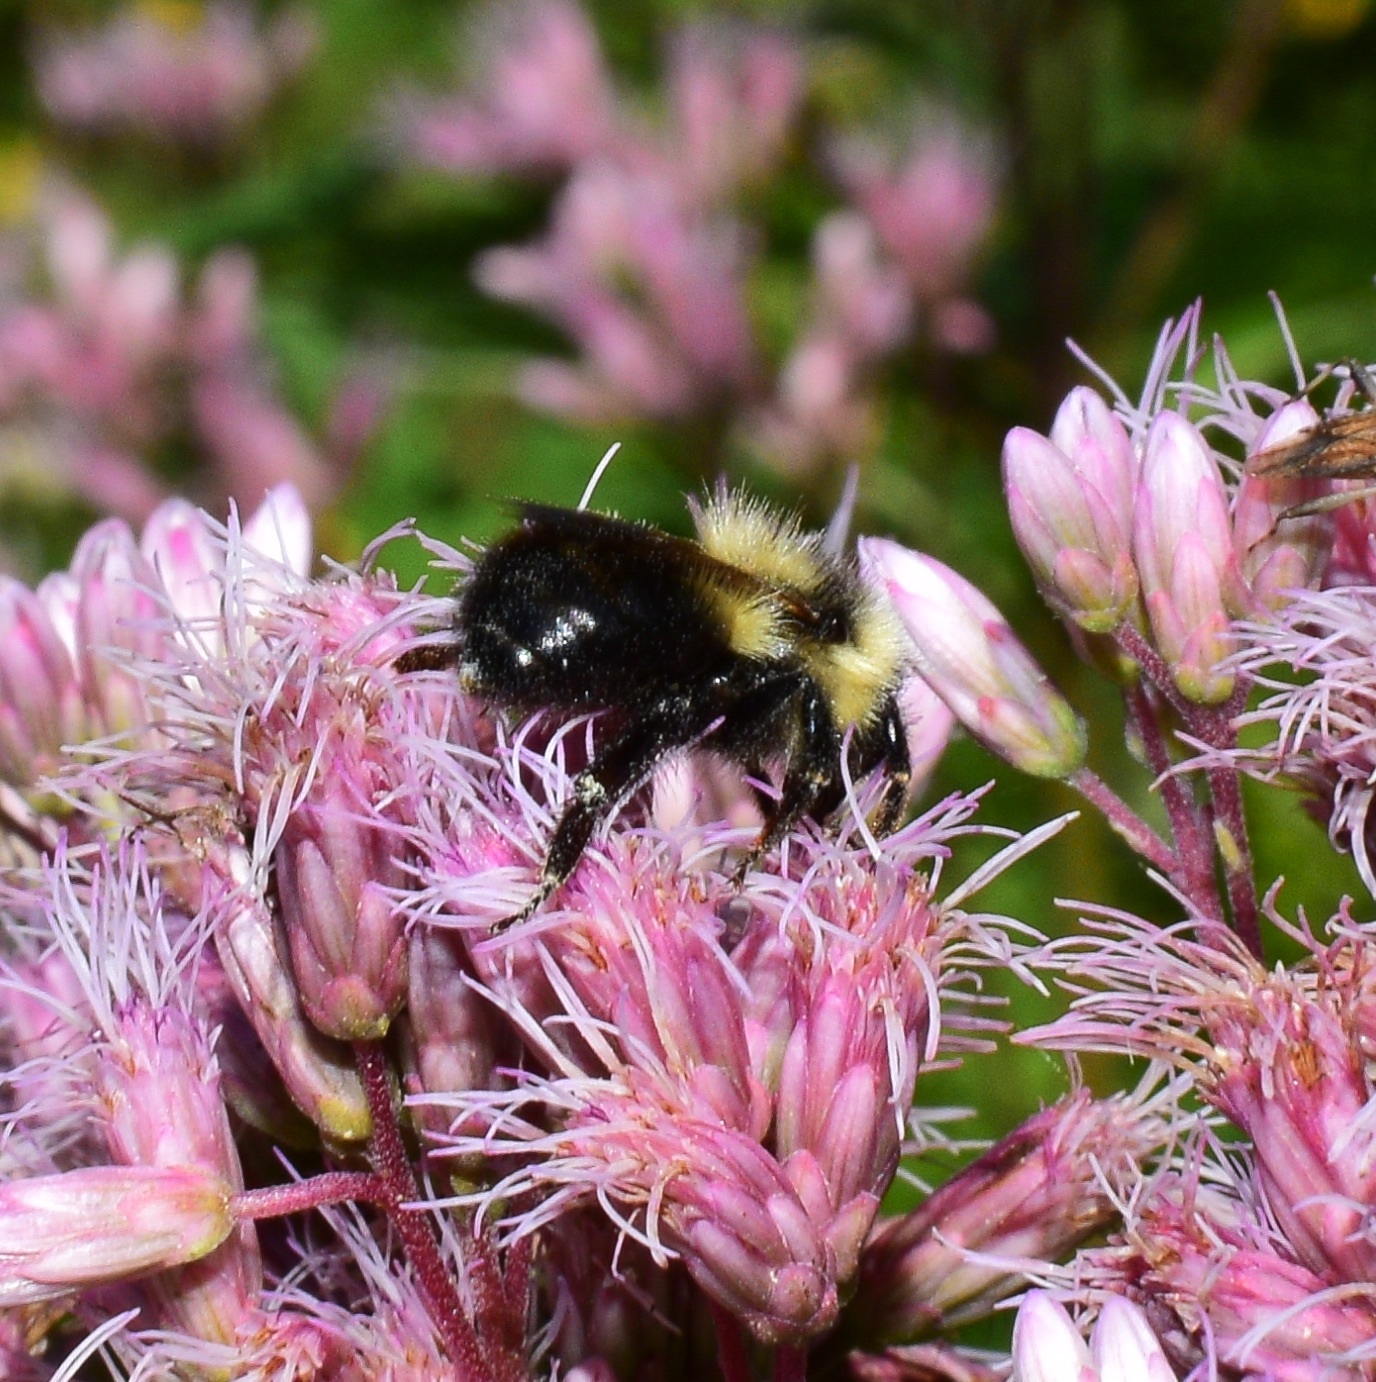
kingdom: Animalia
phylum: Arthropoda
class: Insecta
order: Hymenoptera
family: Apidae
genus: Bombus
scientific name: Bombus rufocinctus
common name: Red-belted bumble bee
